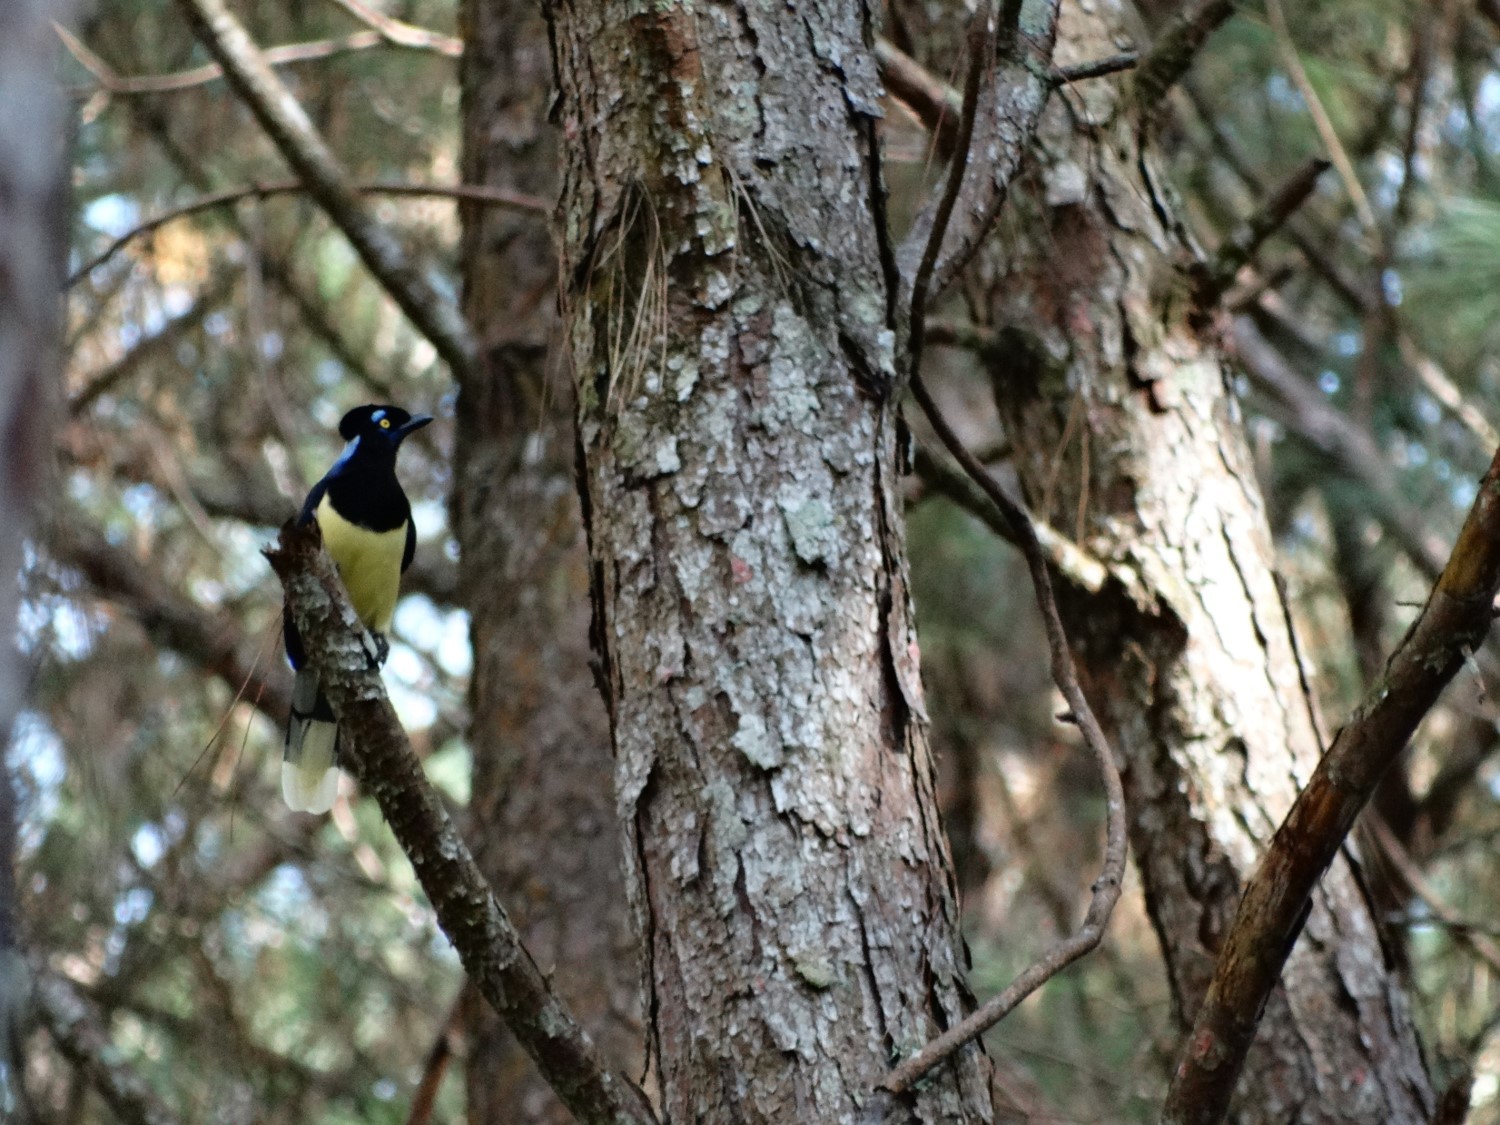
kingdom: Animalia
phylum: Chordata
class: Aves
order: Passeriformes
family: Corvidae
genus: Cyanocorax
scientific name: Cyanocorax chrysops
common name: Plush-crested jay
